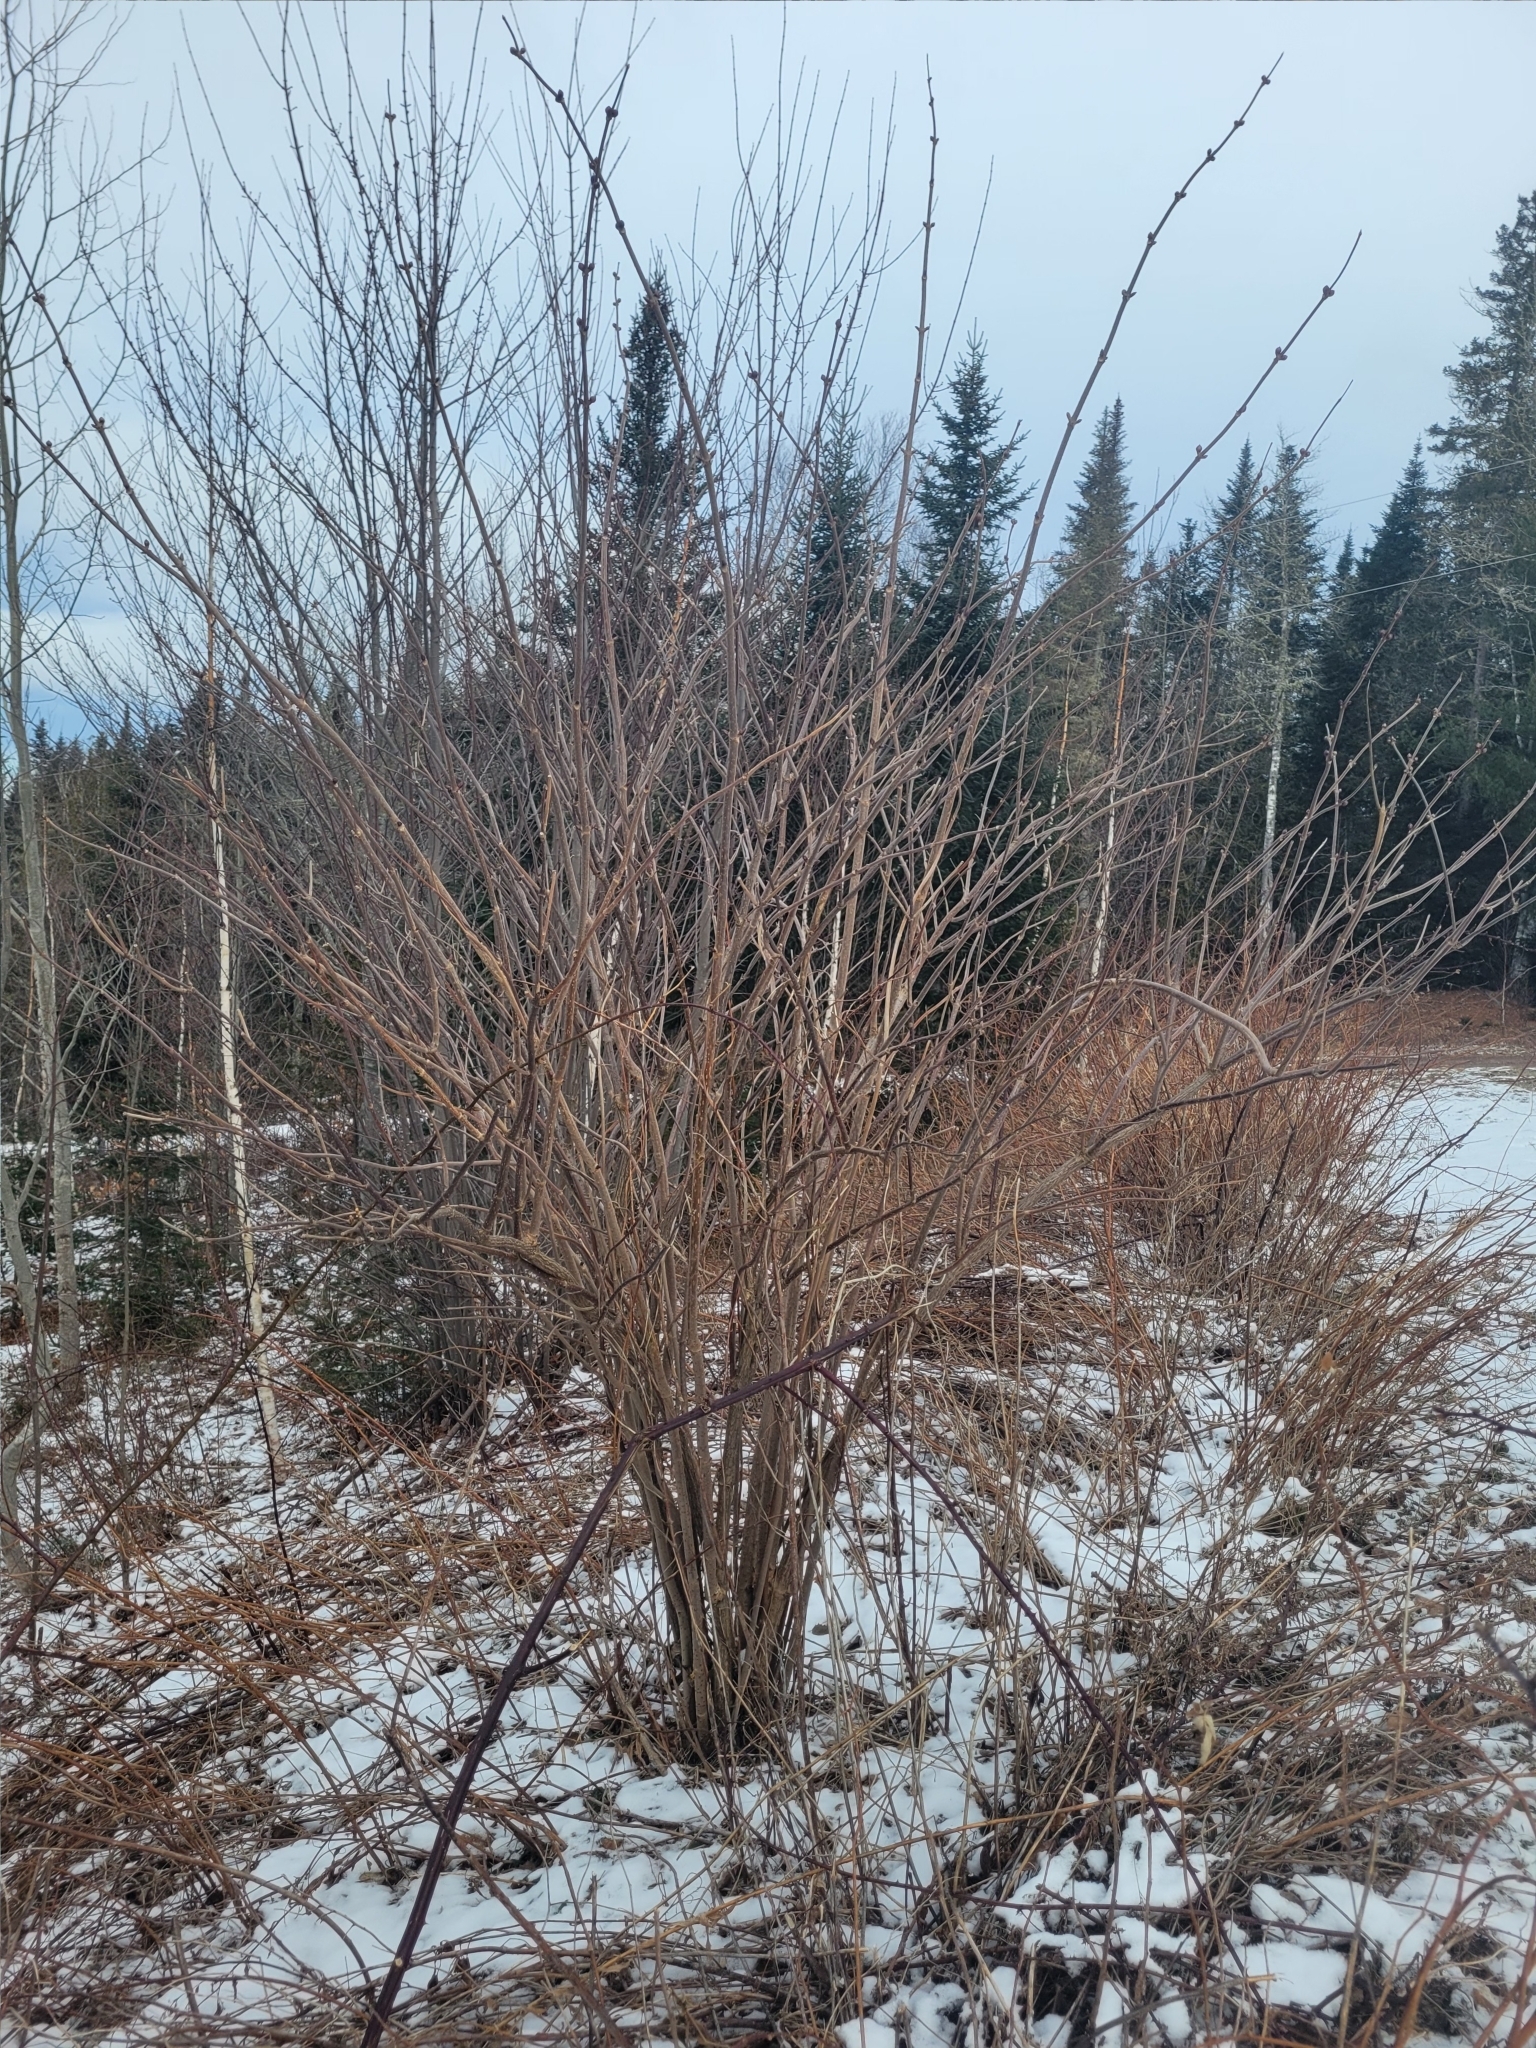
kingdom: Plantae
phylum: Tracheophyta
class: Magnoliopsida
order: Dipsacales
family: Viburnaceae
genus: Sambucus
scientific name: Sambucus racemosa
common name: Red-berried elder
